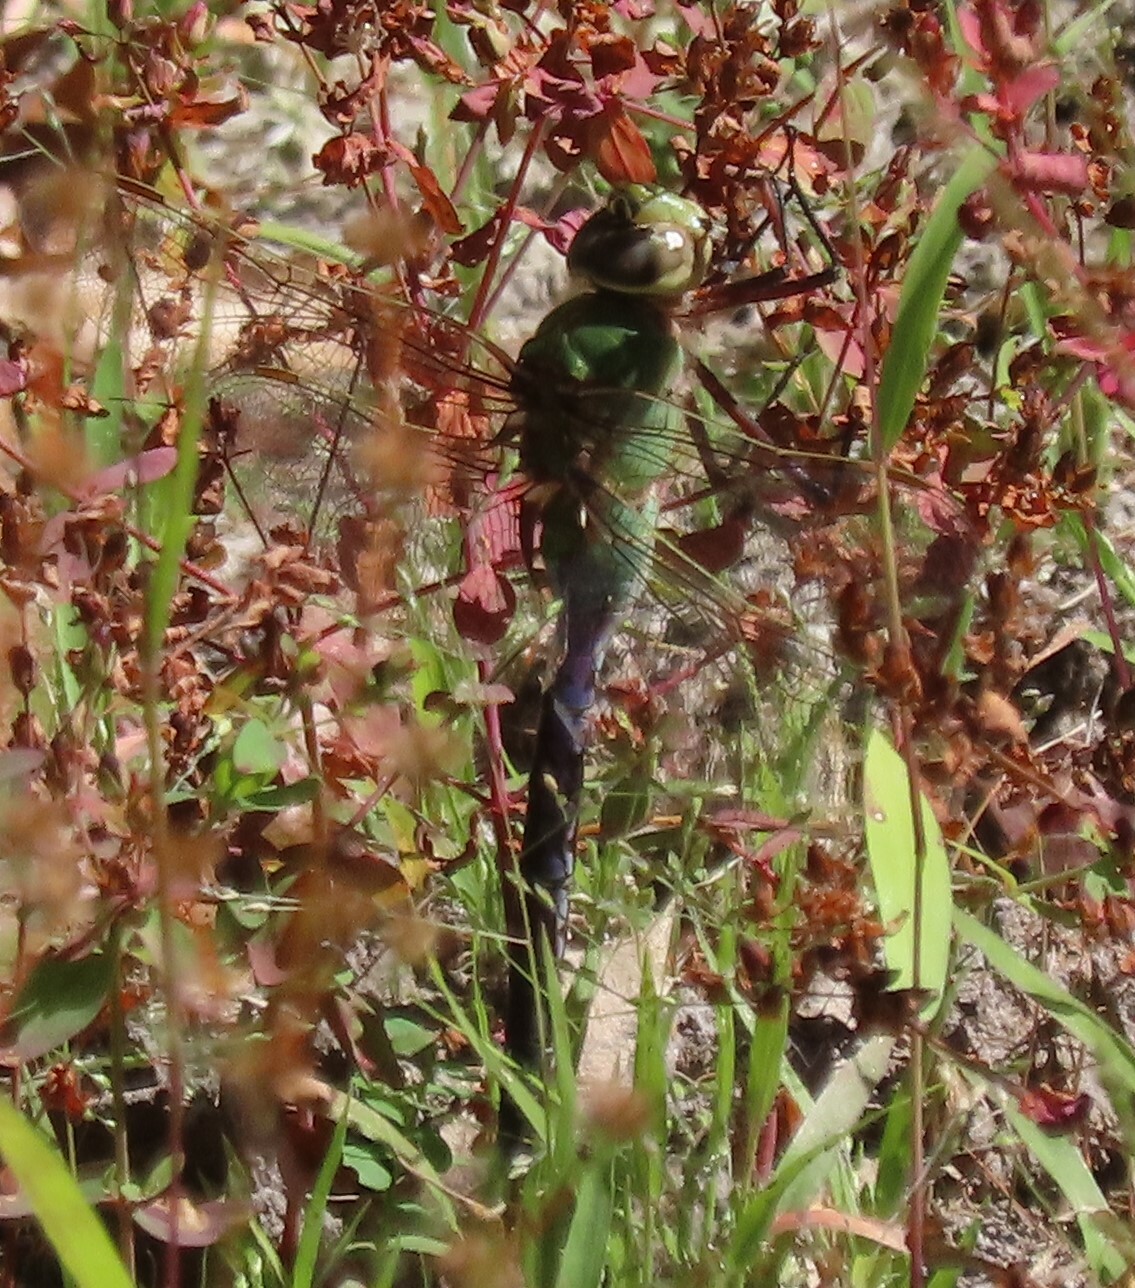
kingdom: Animalia
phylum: Arthropoda
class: Insecta
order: Odonata
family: Aeshnidae
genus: Anax
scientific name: Anax junius
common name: Common green darner
